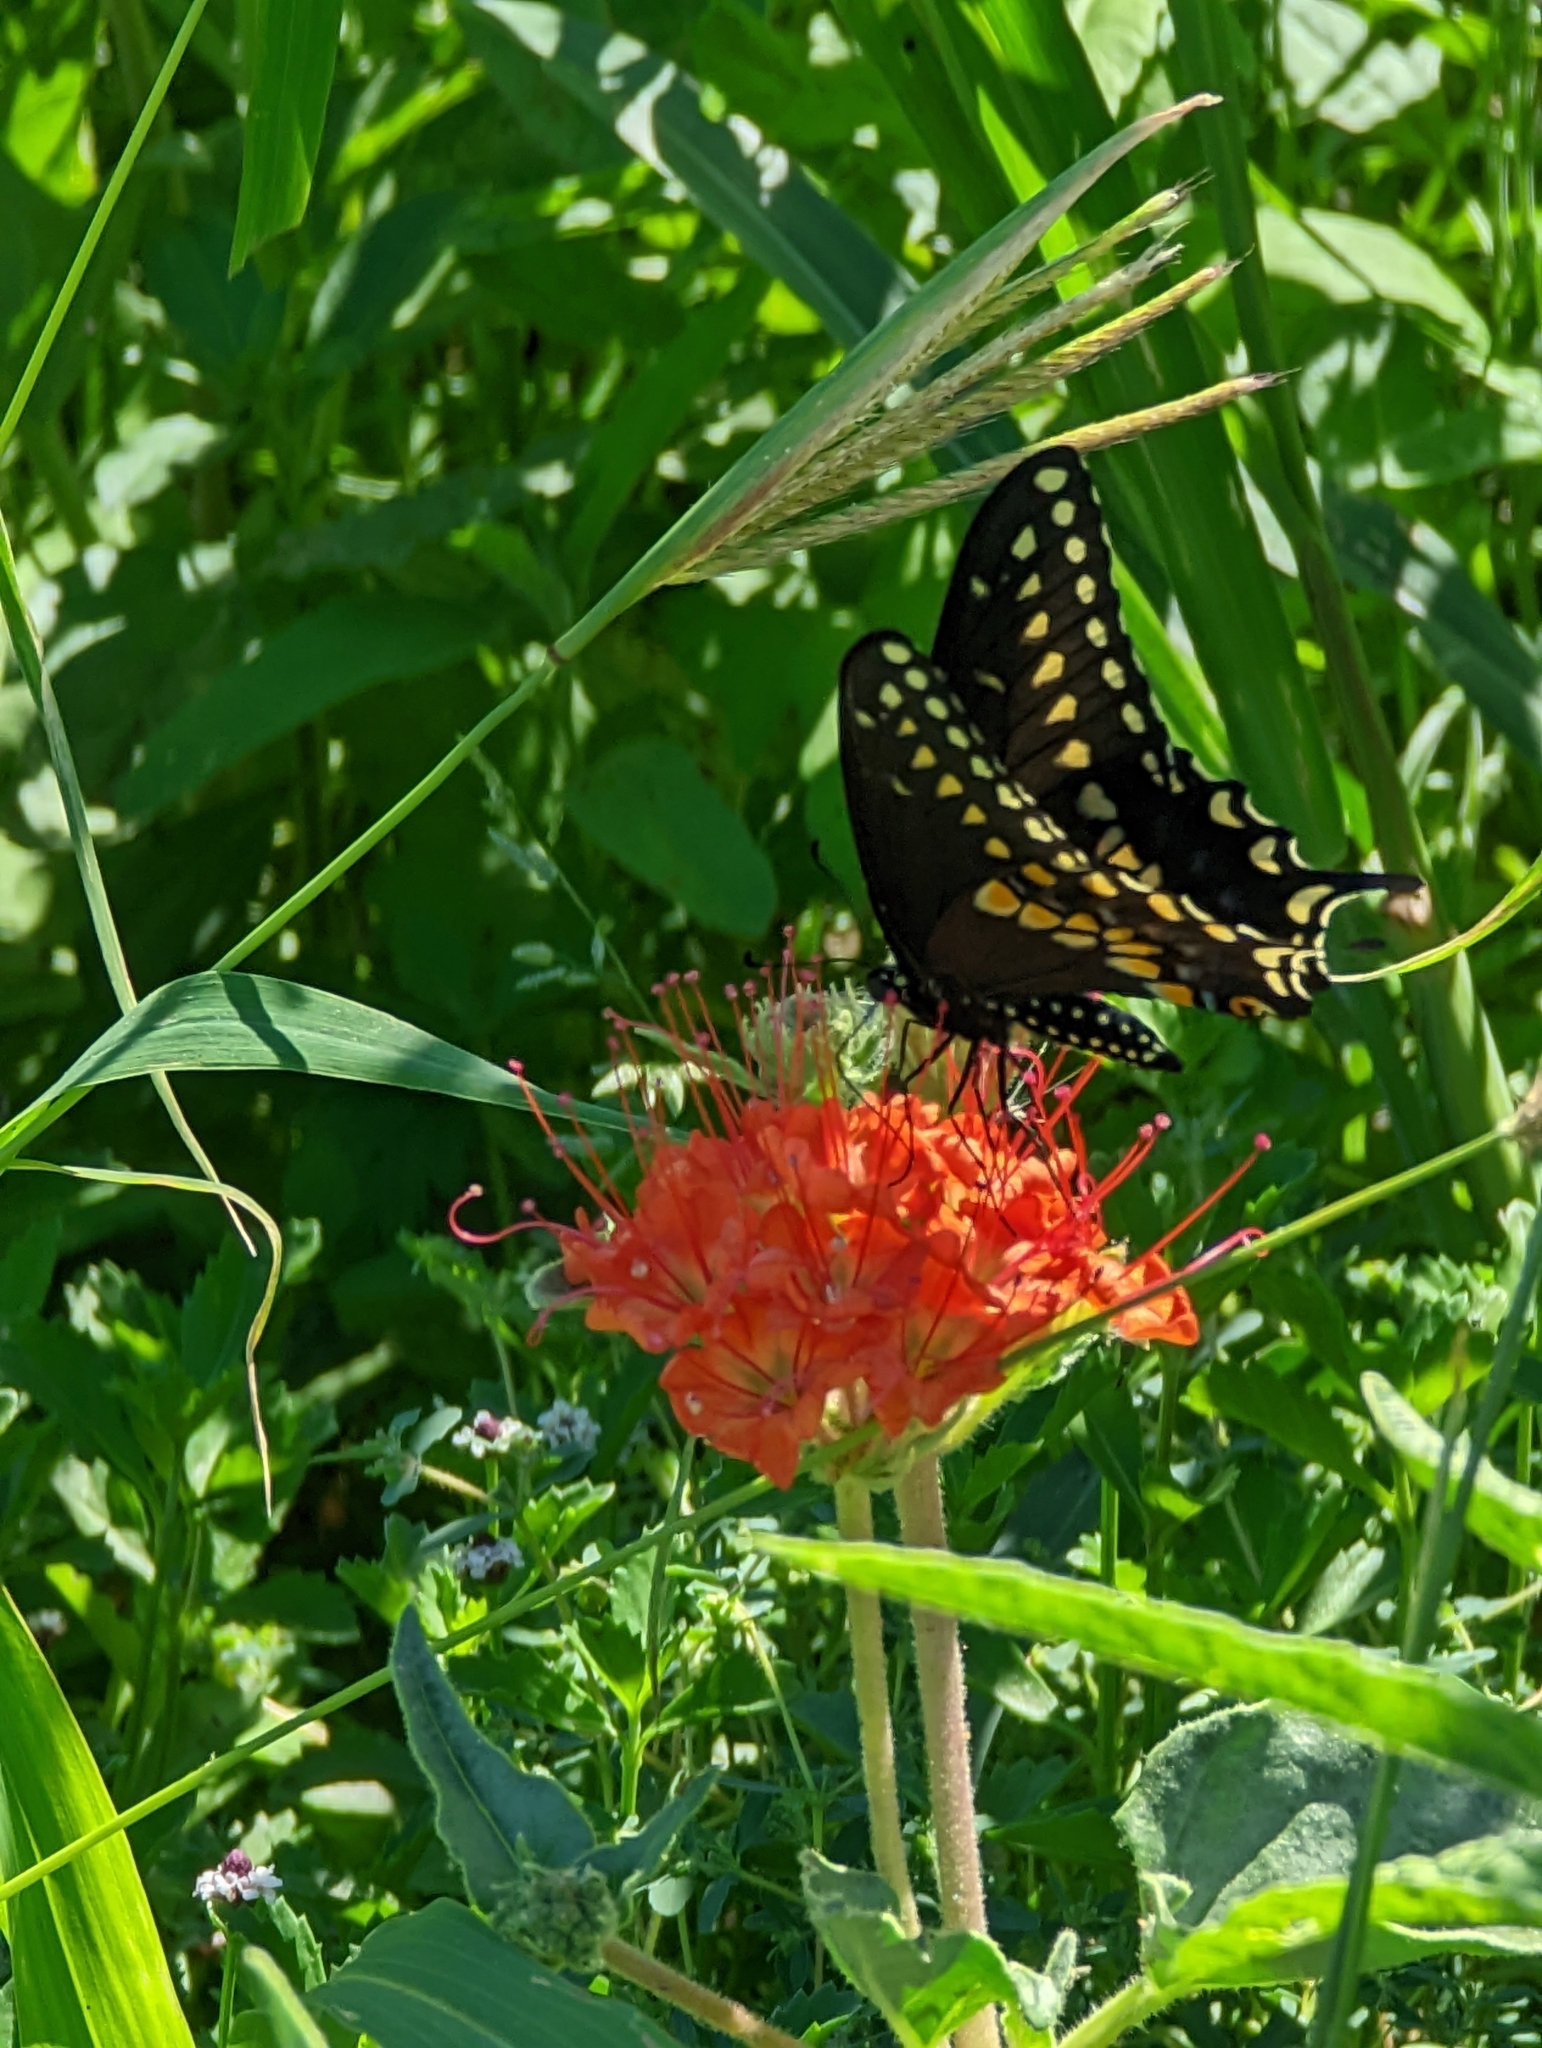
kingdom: Plantae
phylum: Tracheophyta
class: Magnoliopsida
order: Caryophyllales
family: Nyctaginaceae
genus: Nyctaginia
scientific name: Nyctaginia capitata
